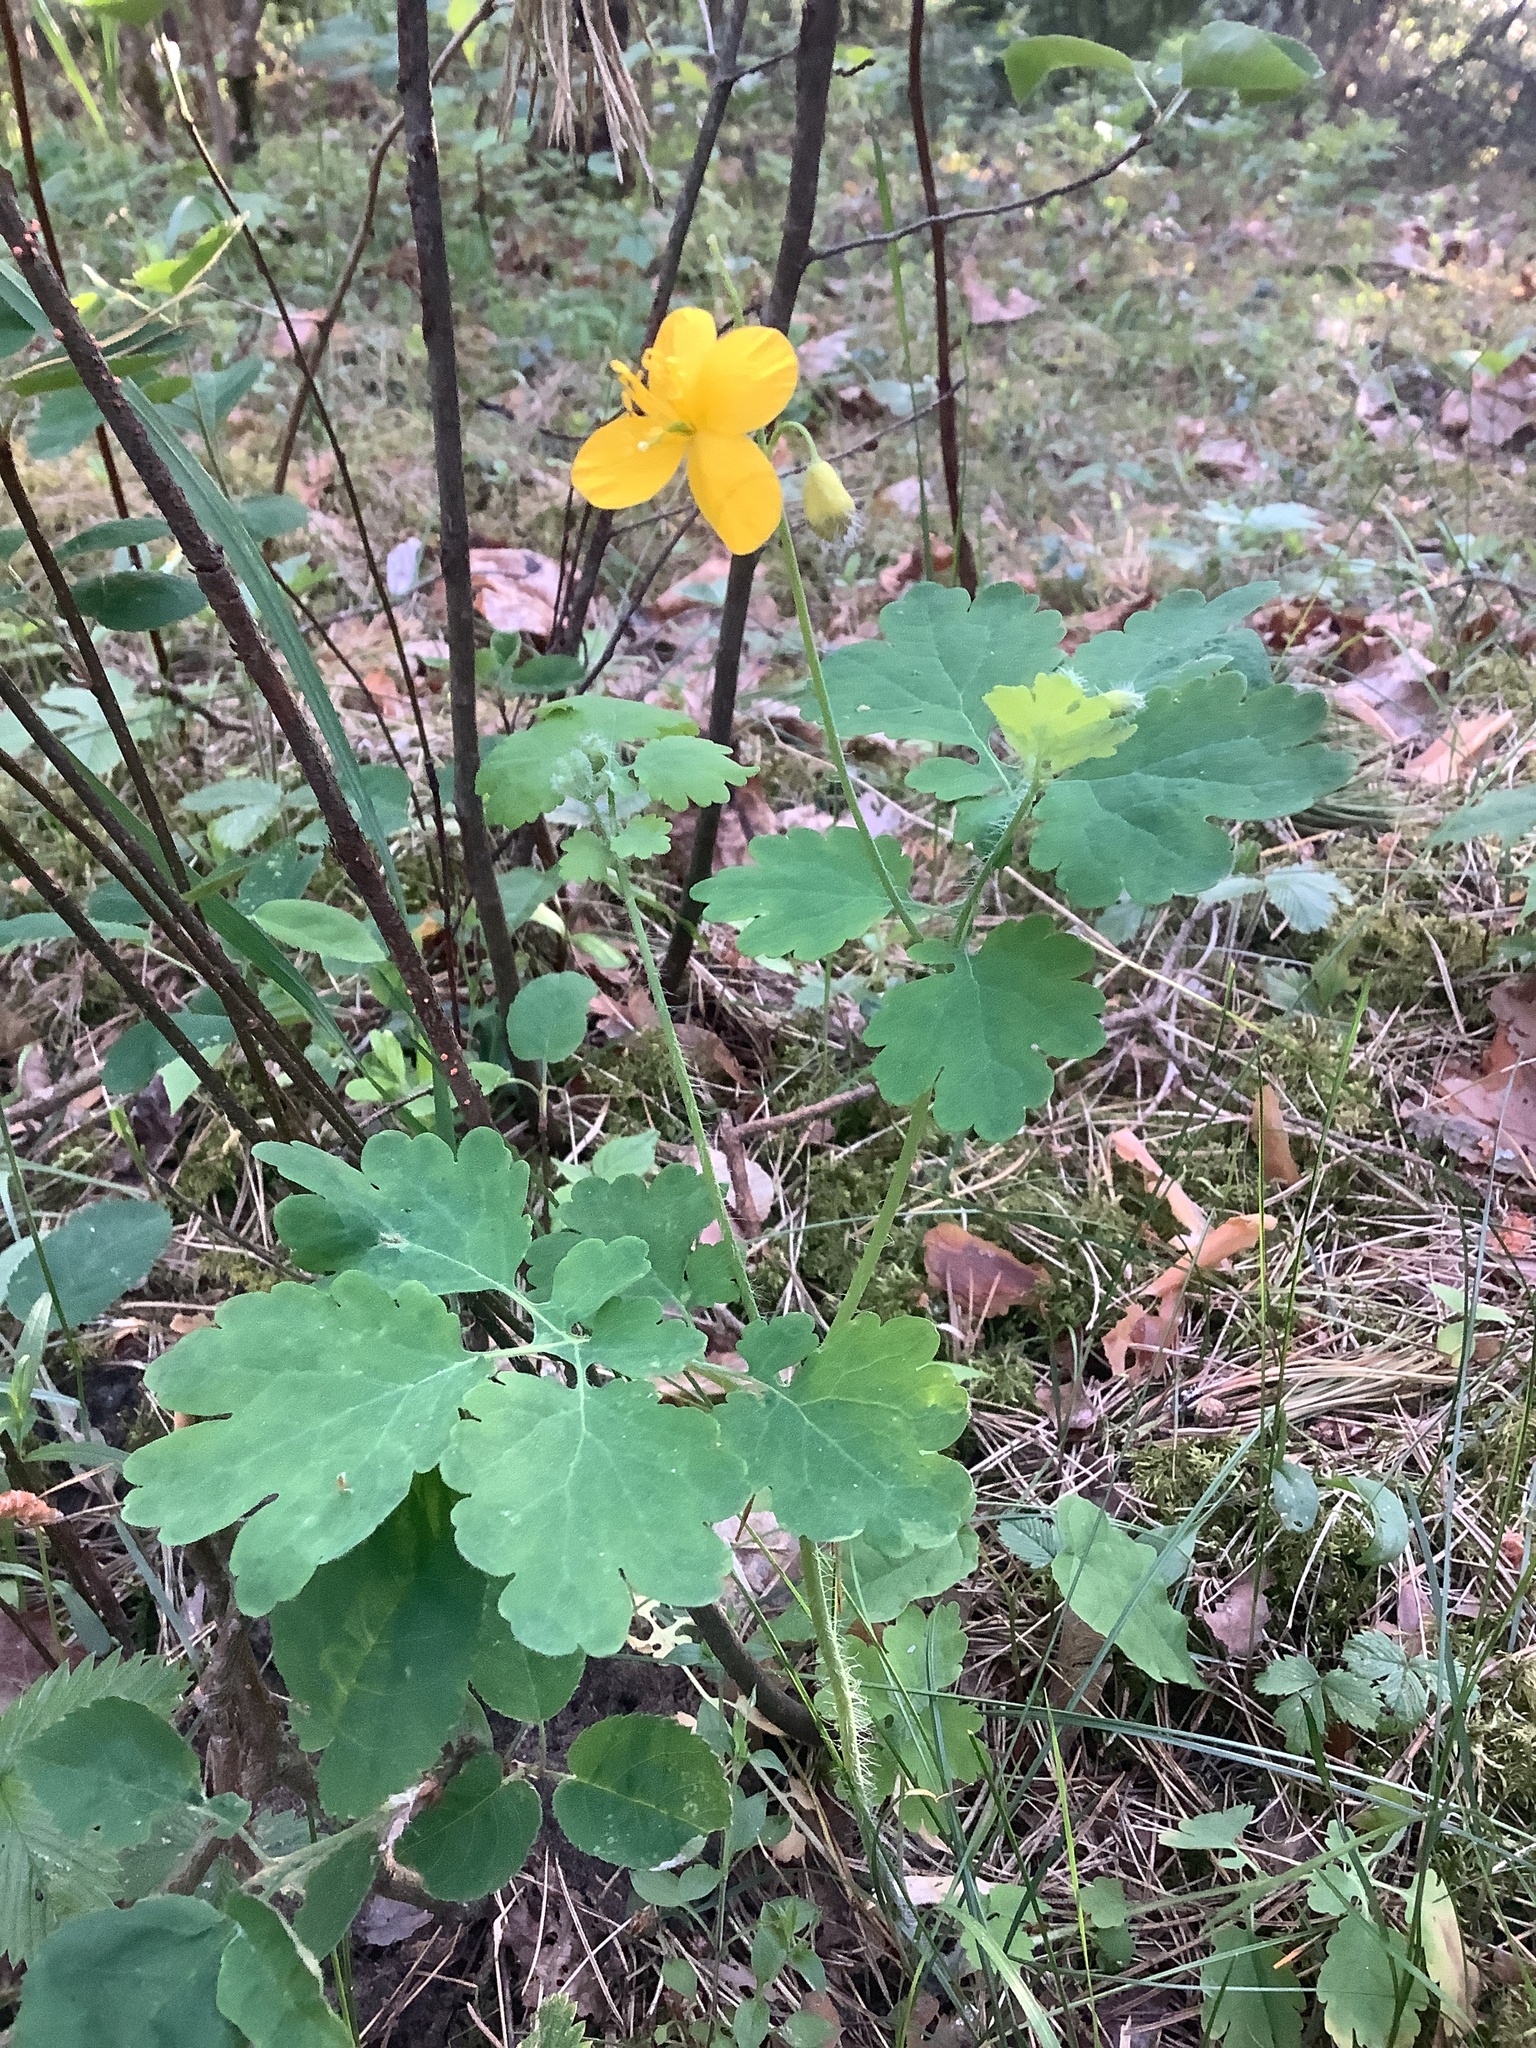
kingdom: Plantae
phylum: Tracheophyta
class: Magnoliopsida
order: Ranunculales
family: Papaveraceae
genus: Chelidonium
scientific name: Chelidonium majus
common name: Greater celandine
